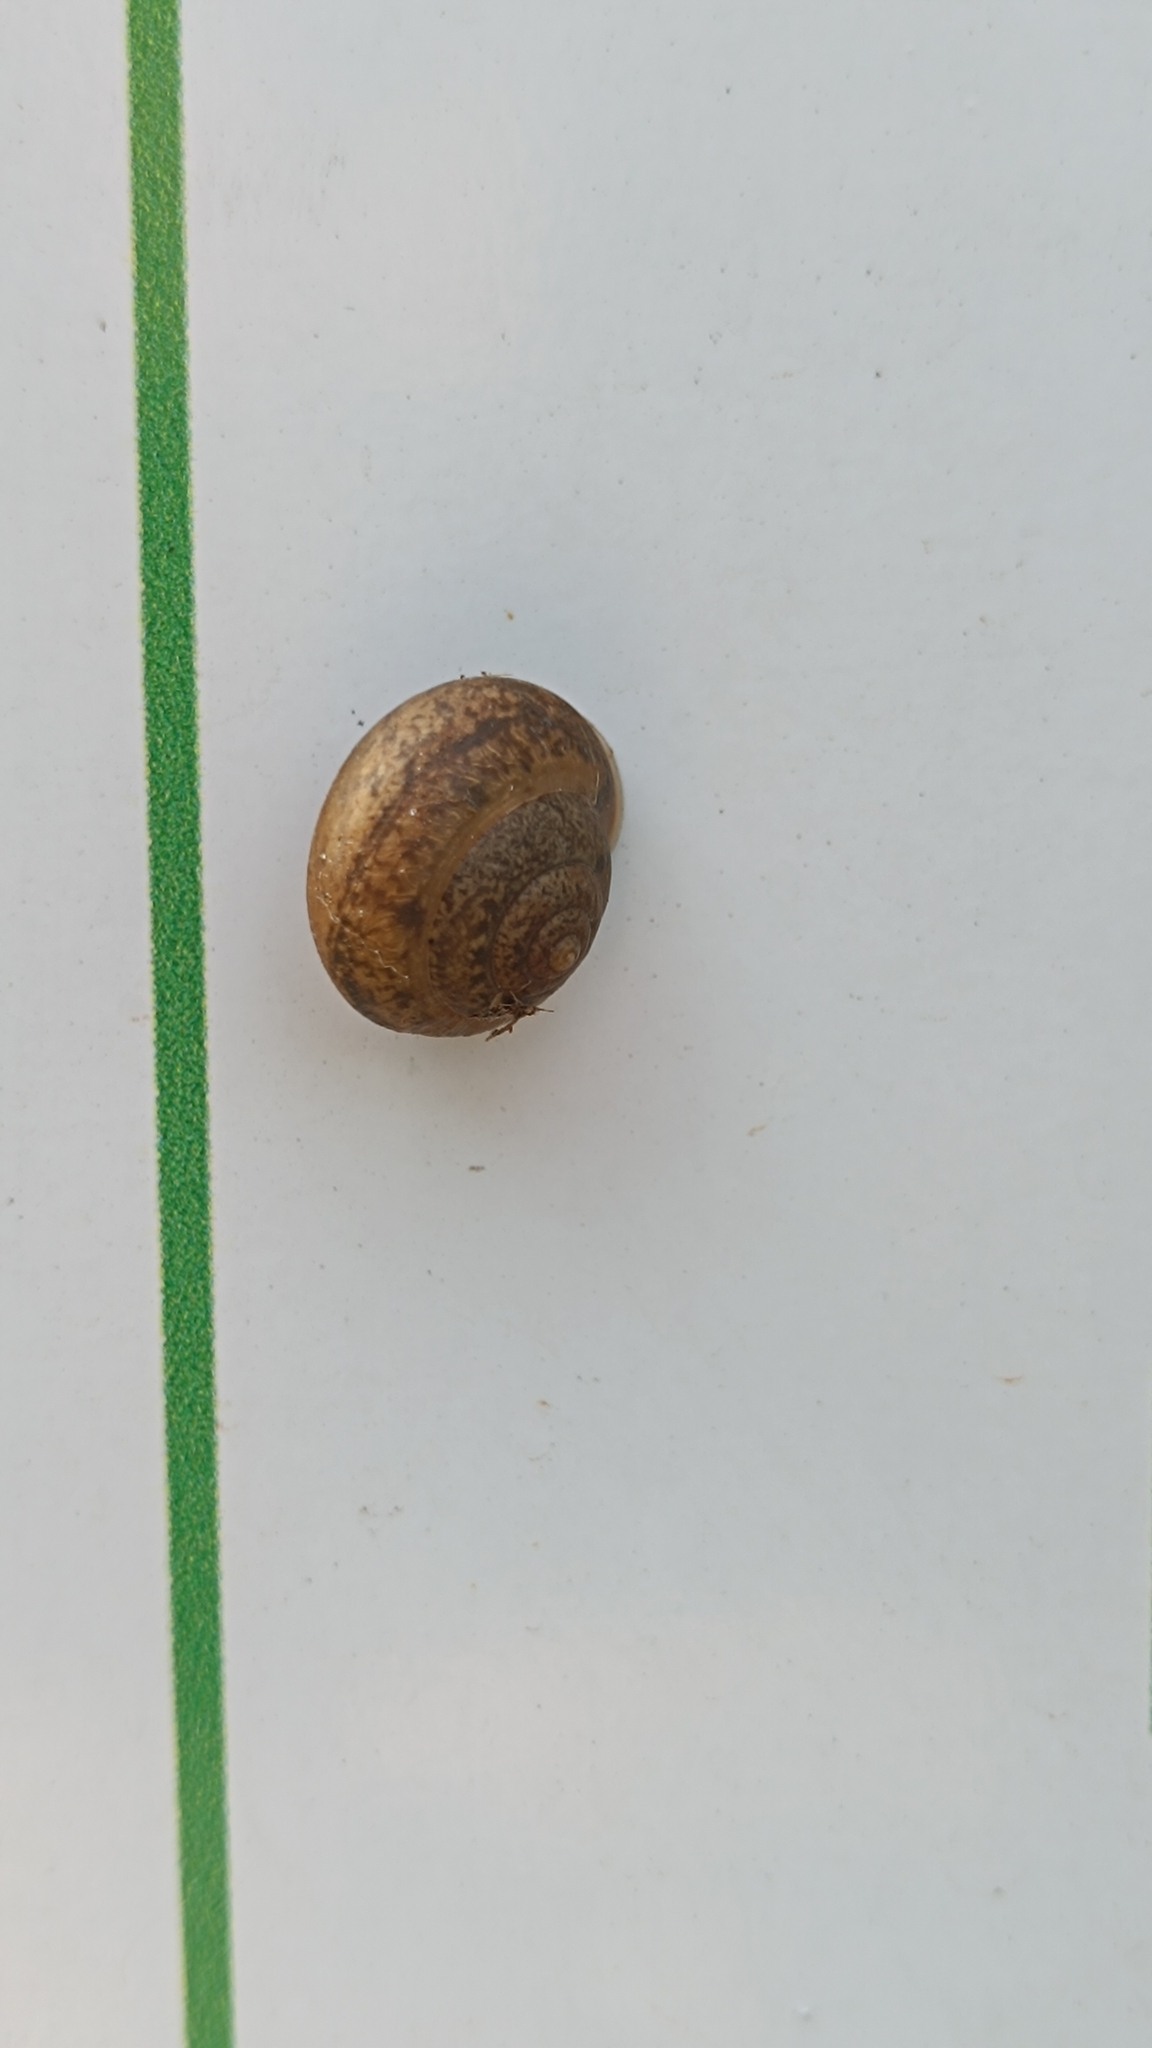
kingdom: Animalia
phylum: Mollusca
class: Gastropoda
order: Stylommatophora
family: Camaenidae
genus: Bradybaena
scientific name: Bradybaena similaris
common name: Asian trampsnail
